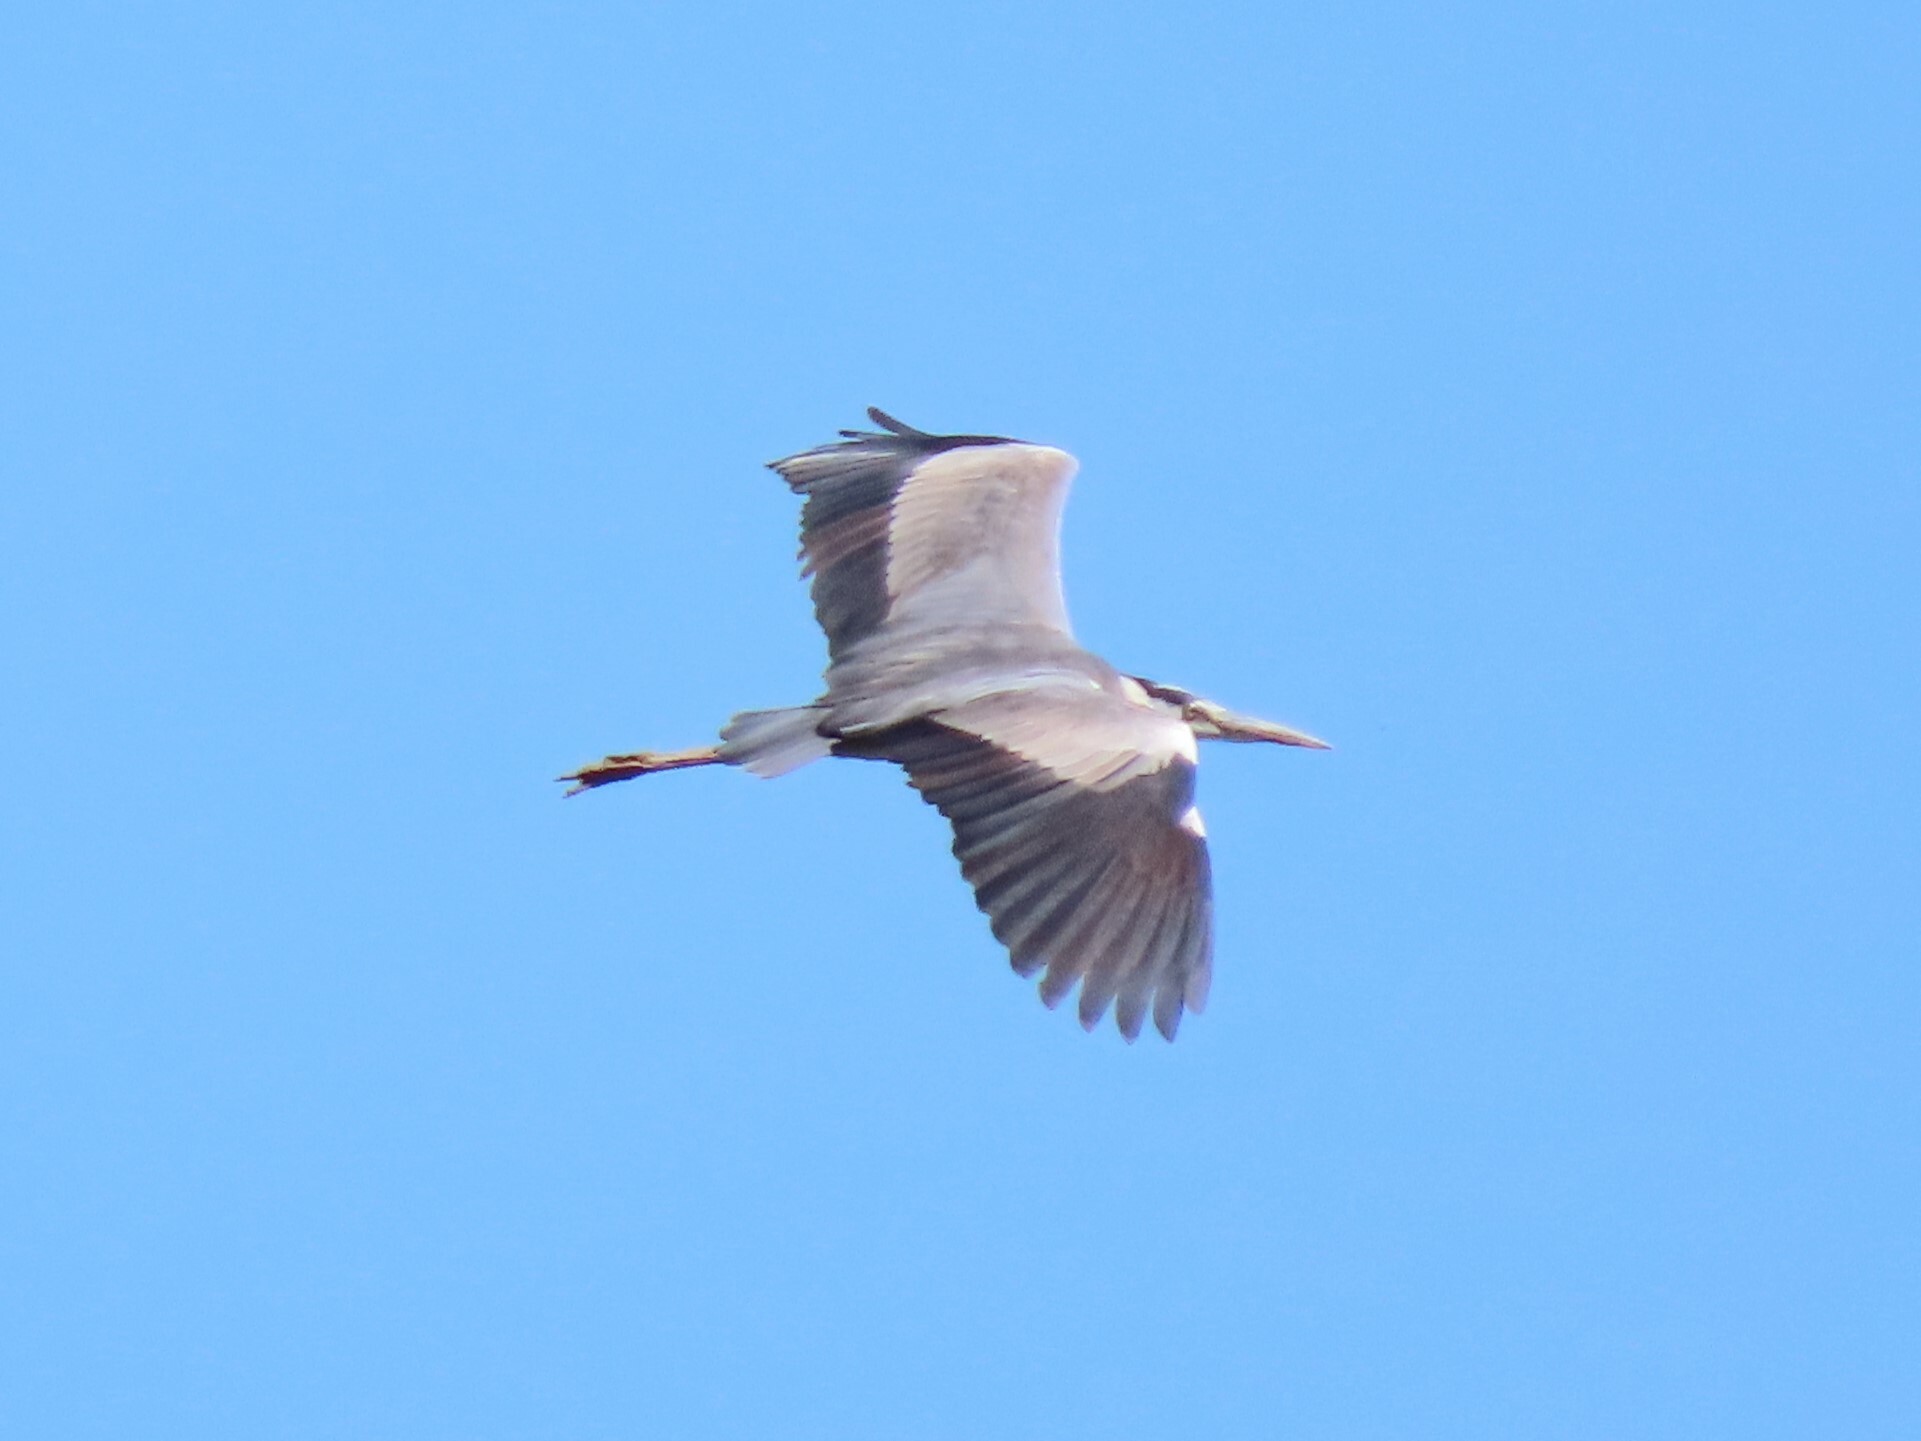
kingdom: Animalia
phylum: Chordata
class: Aves
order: Pelecaniformes
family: Ardeidae
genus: Ardea
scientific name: Ardea cinerea
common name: Grey heron
